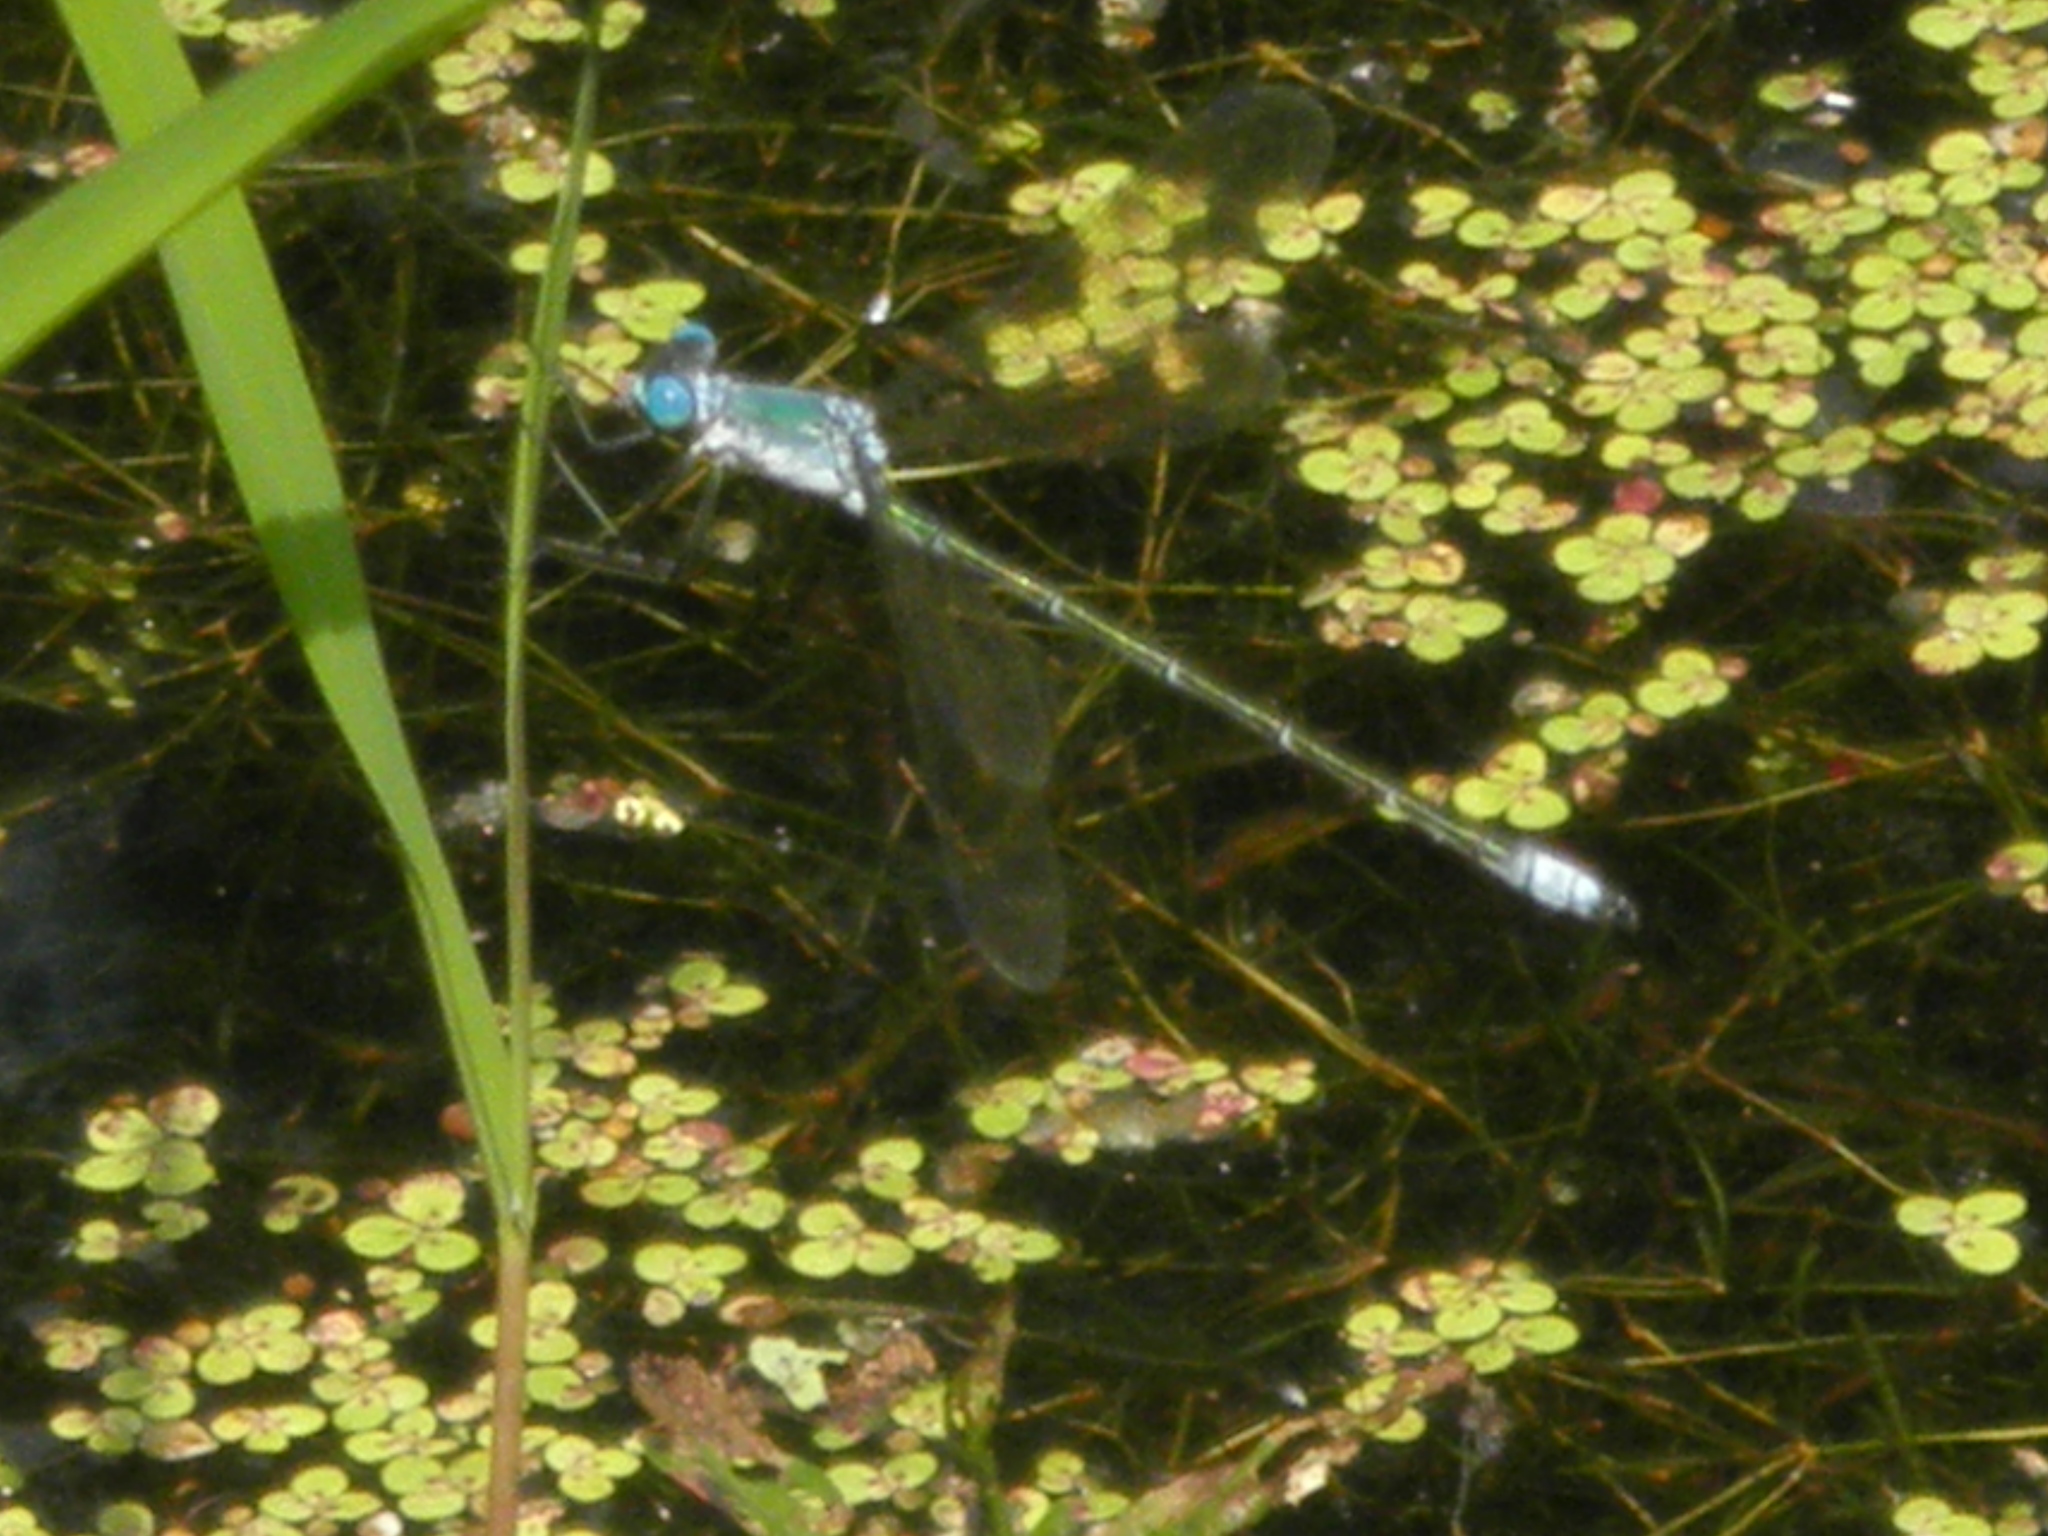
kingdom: Animalia
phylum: Arthropoda
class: Insecta
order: Odonata
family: Lestidae
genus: Lestes
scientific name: Lestes eurinus
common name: Amber-winged spreadwing
